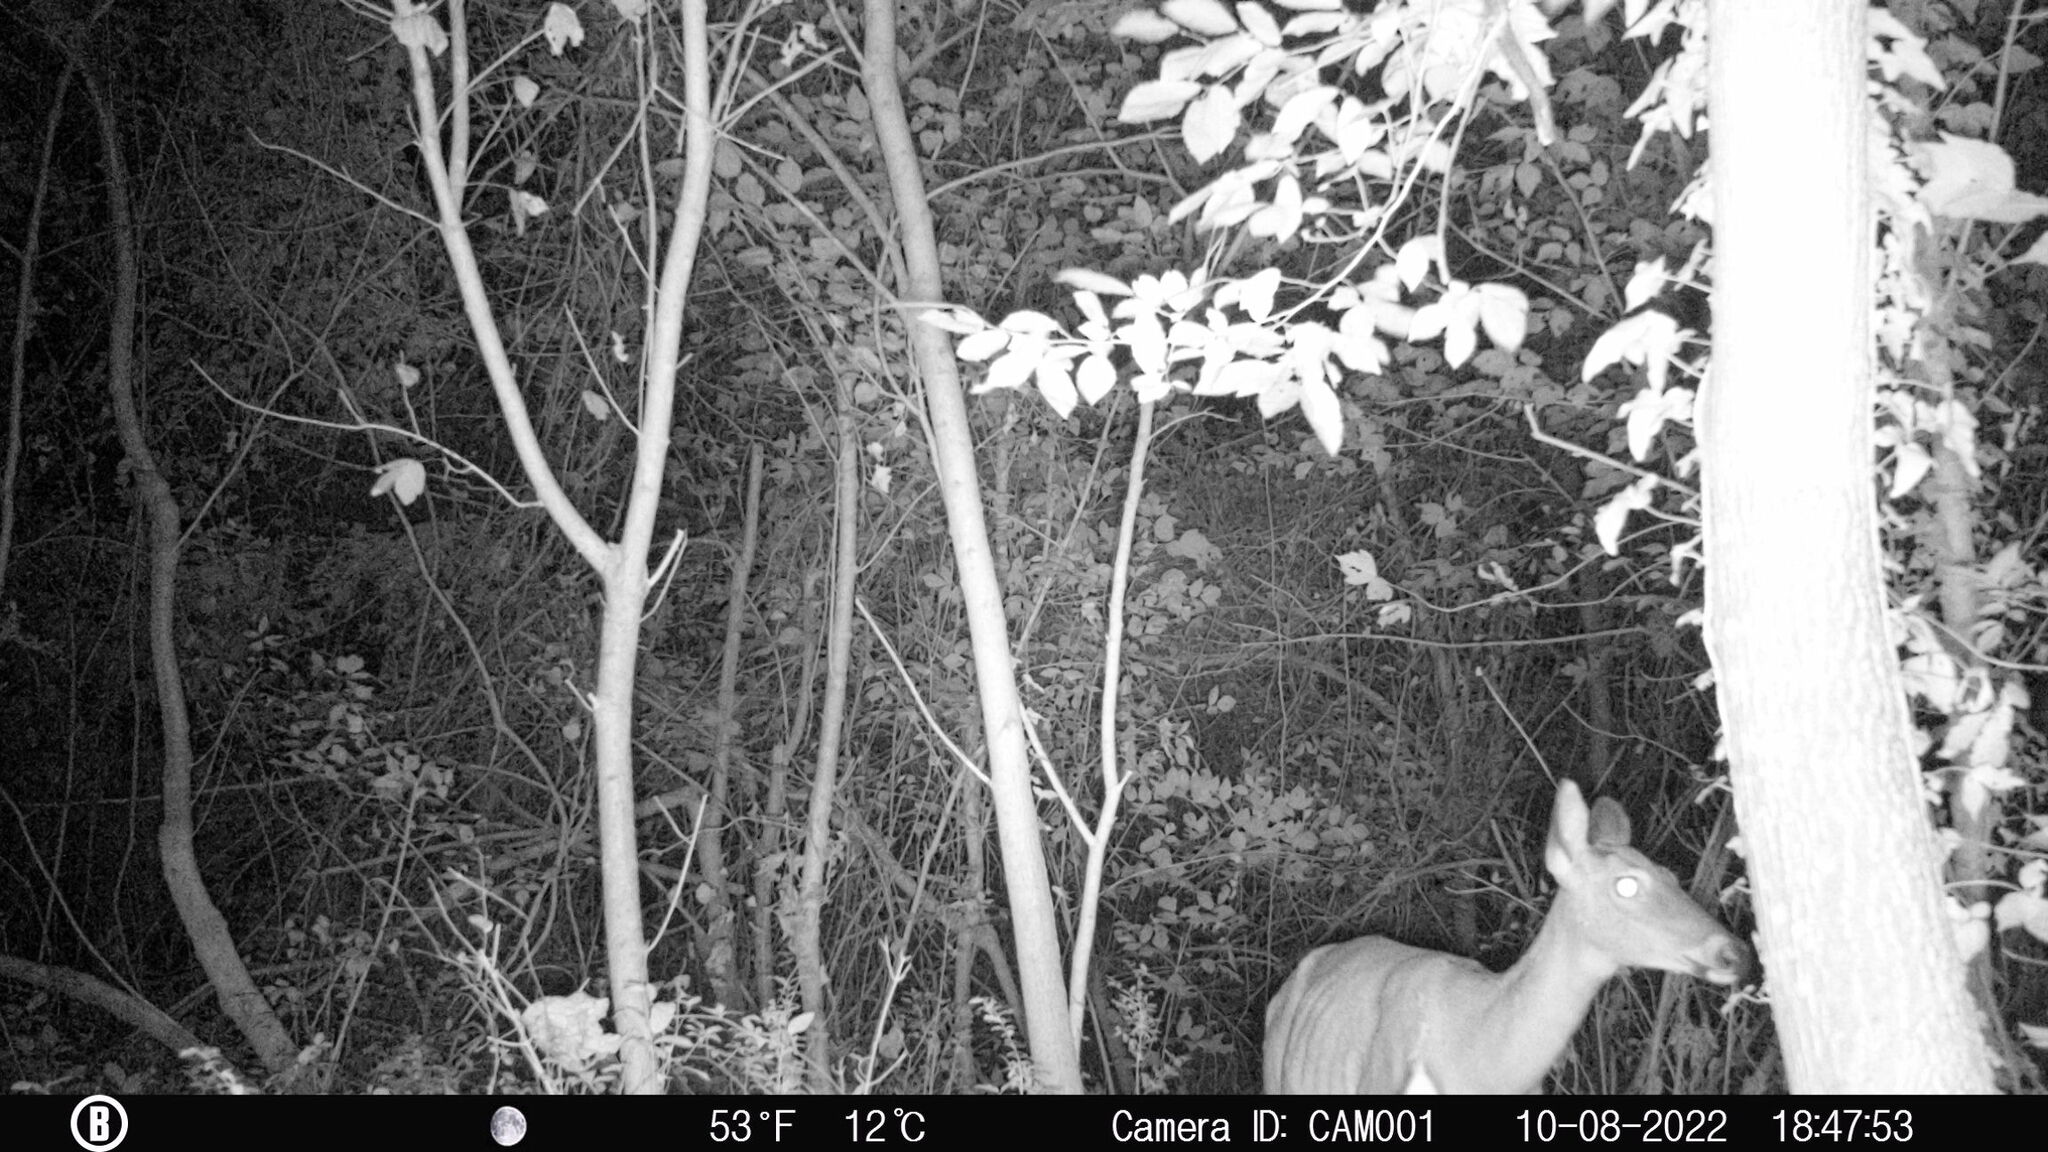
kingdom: Animalia
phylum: Chordata
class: Mammalia
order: Artiodactyla
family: Cervidae
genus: Odocoileus
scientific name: Odocoileus virginianus
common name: White-tailed deer
